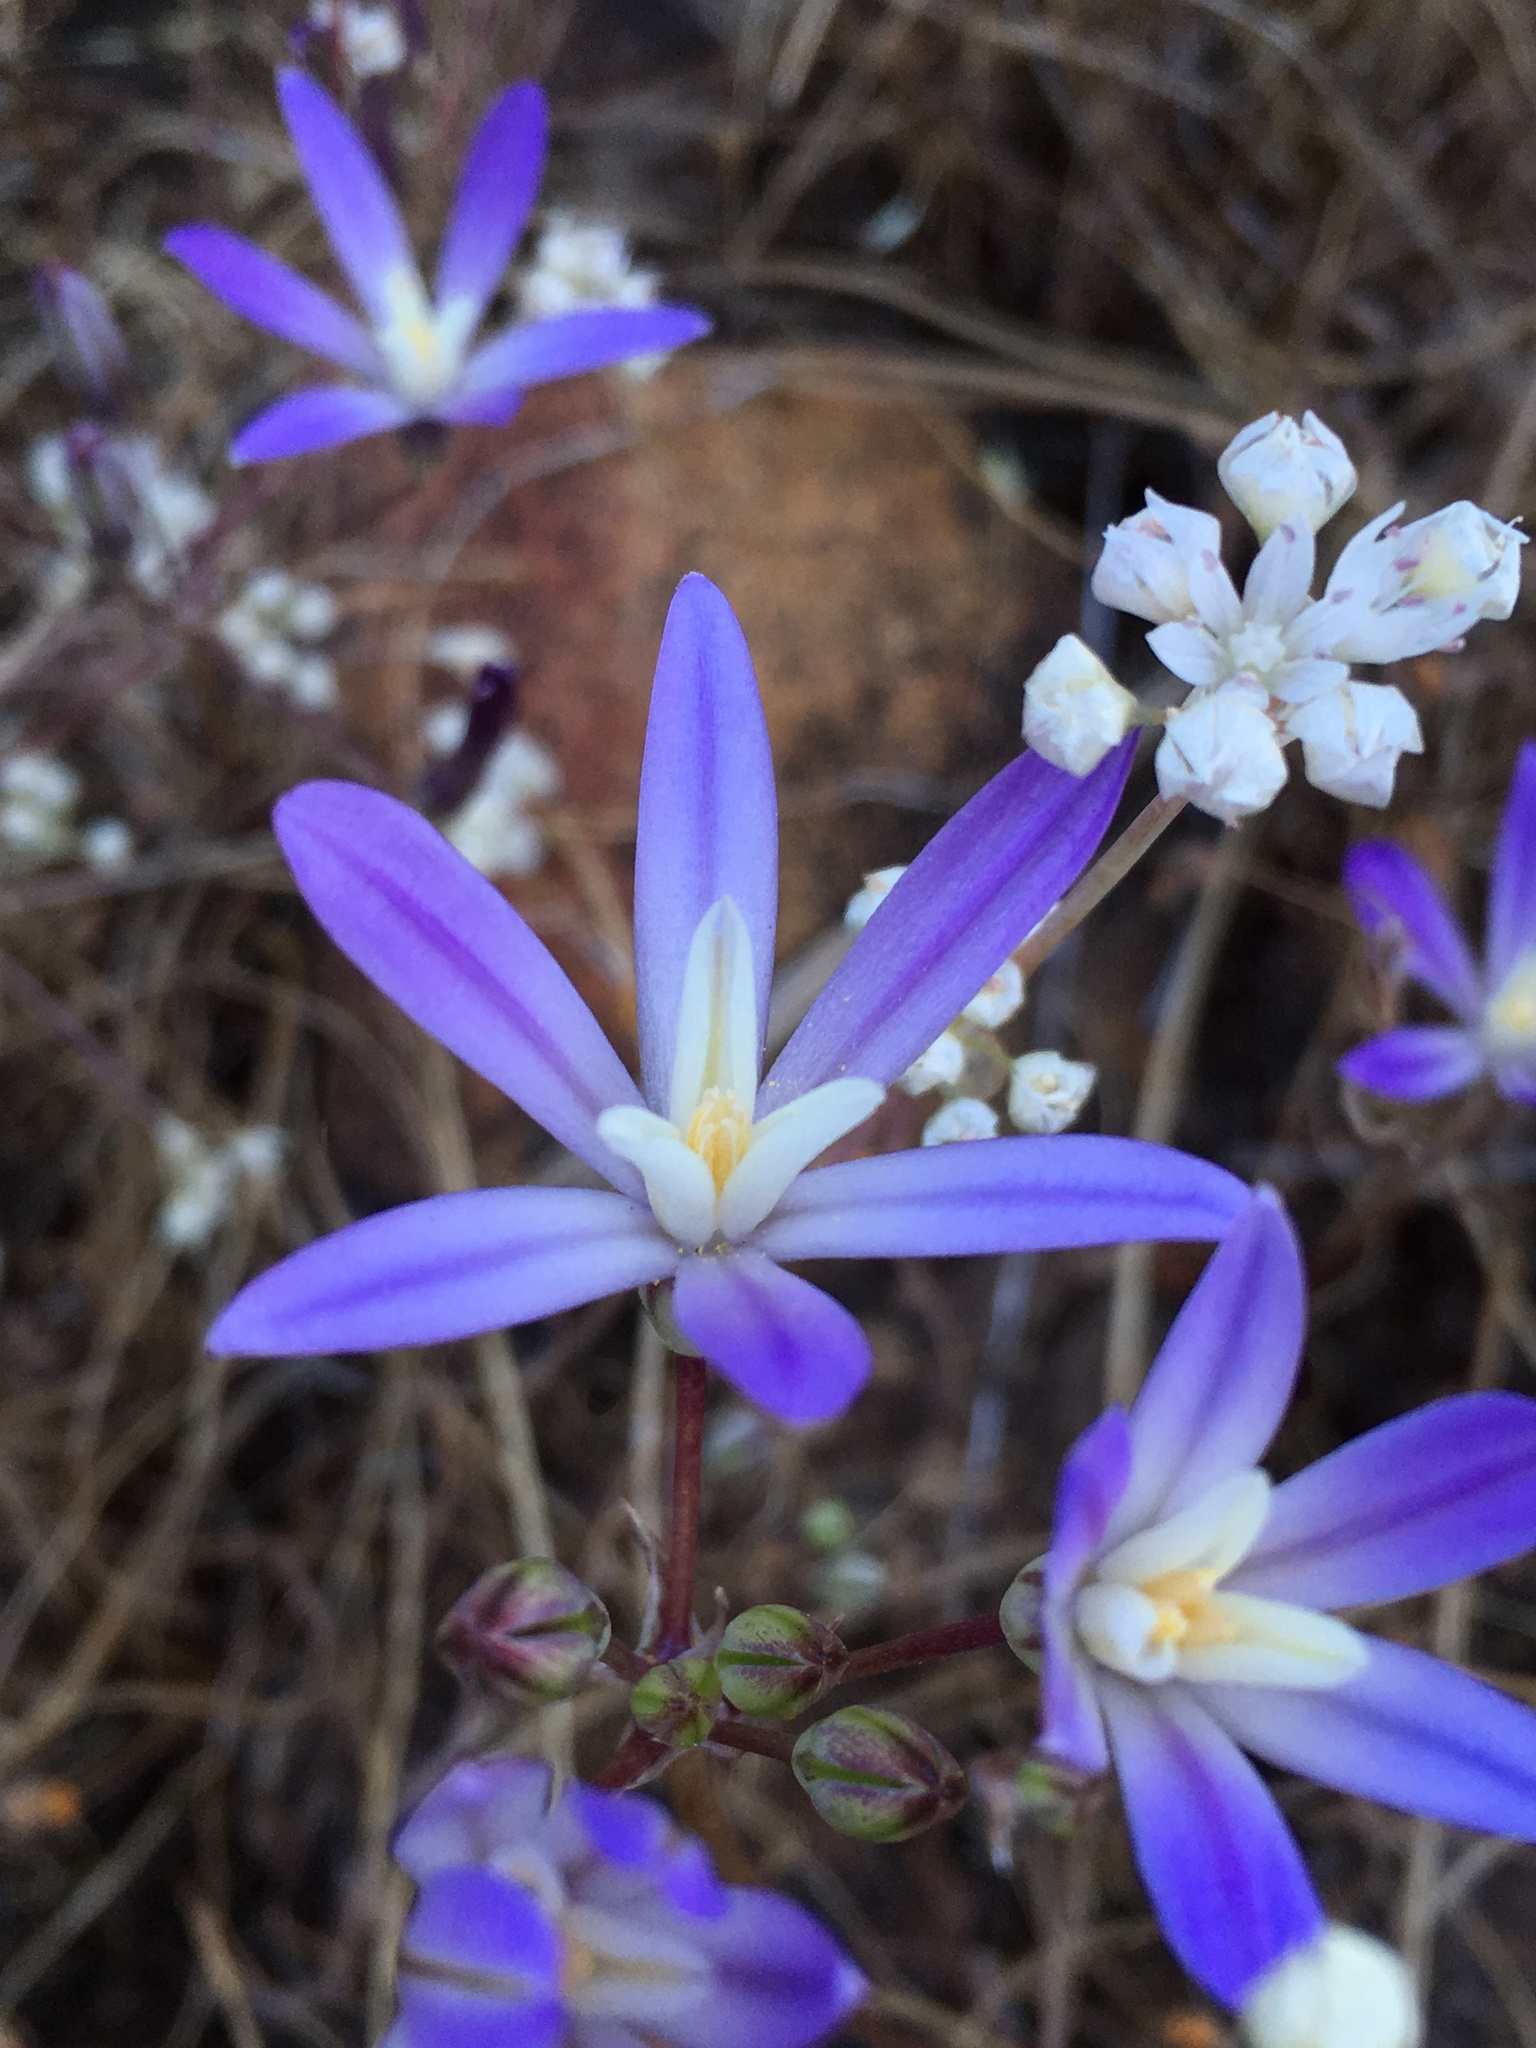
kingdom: Plantae
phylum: Tracheophyta
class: Liliopsida
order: Asparagales
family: Asparagaceae
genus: Brodiaea
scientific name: Brodiaea minor
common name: Dwarf brodiaea
